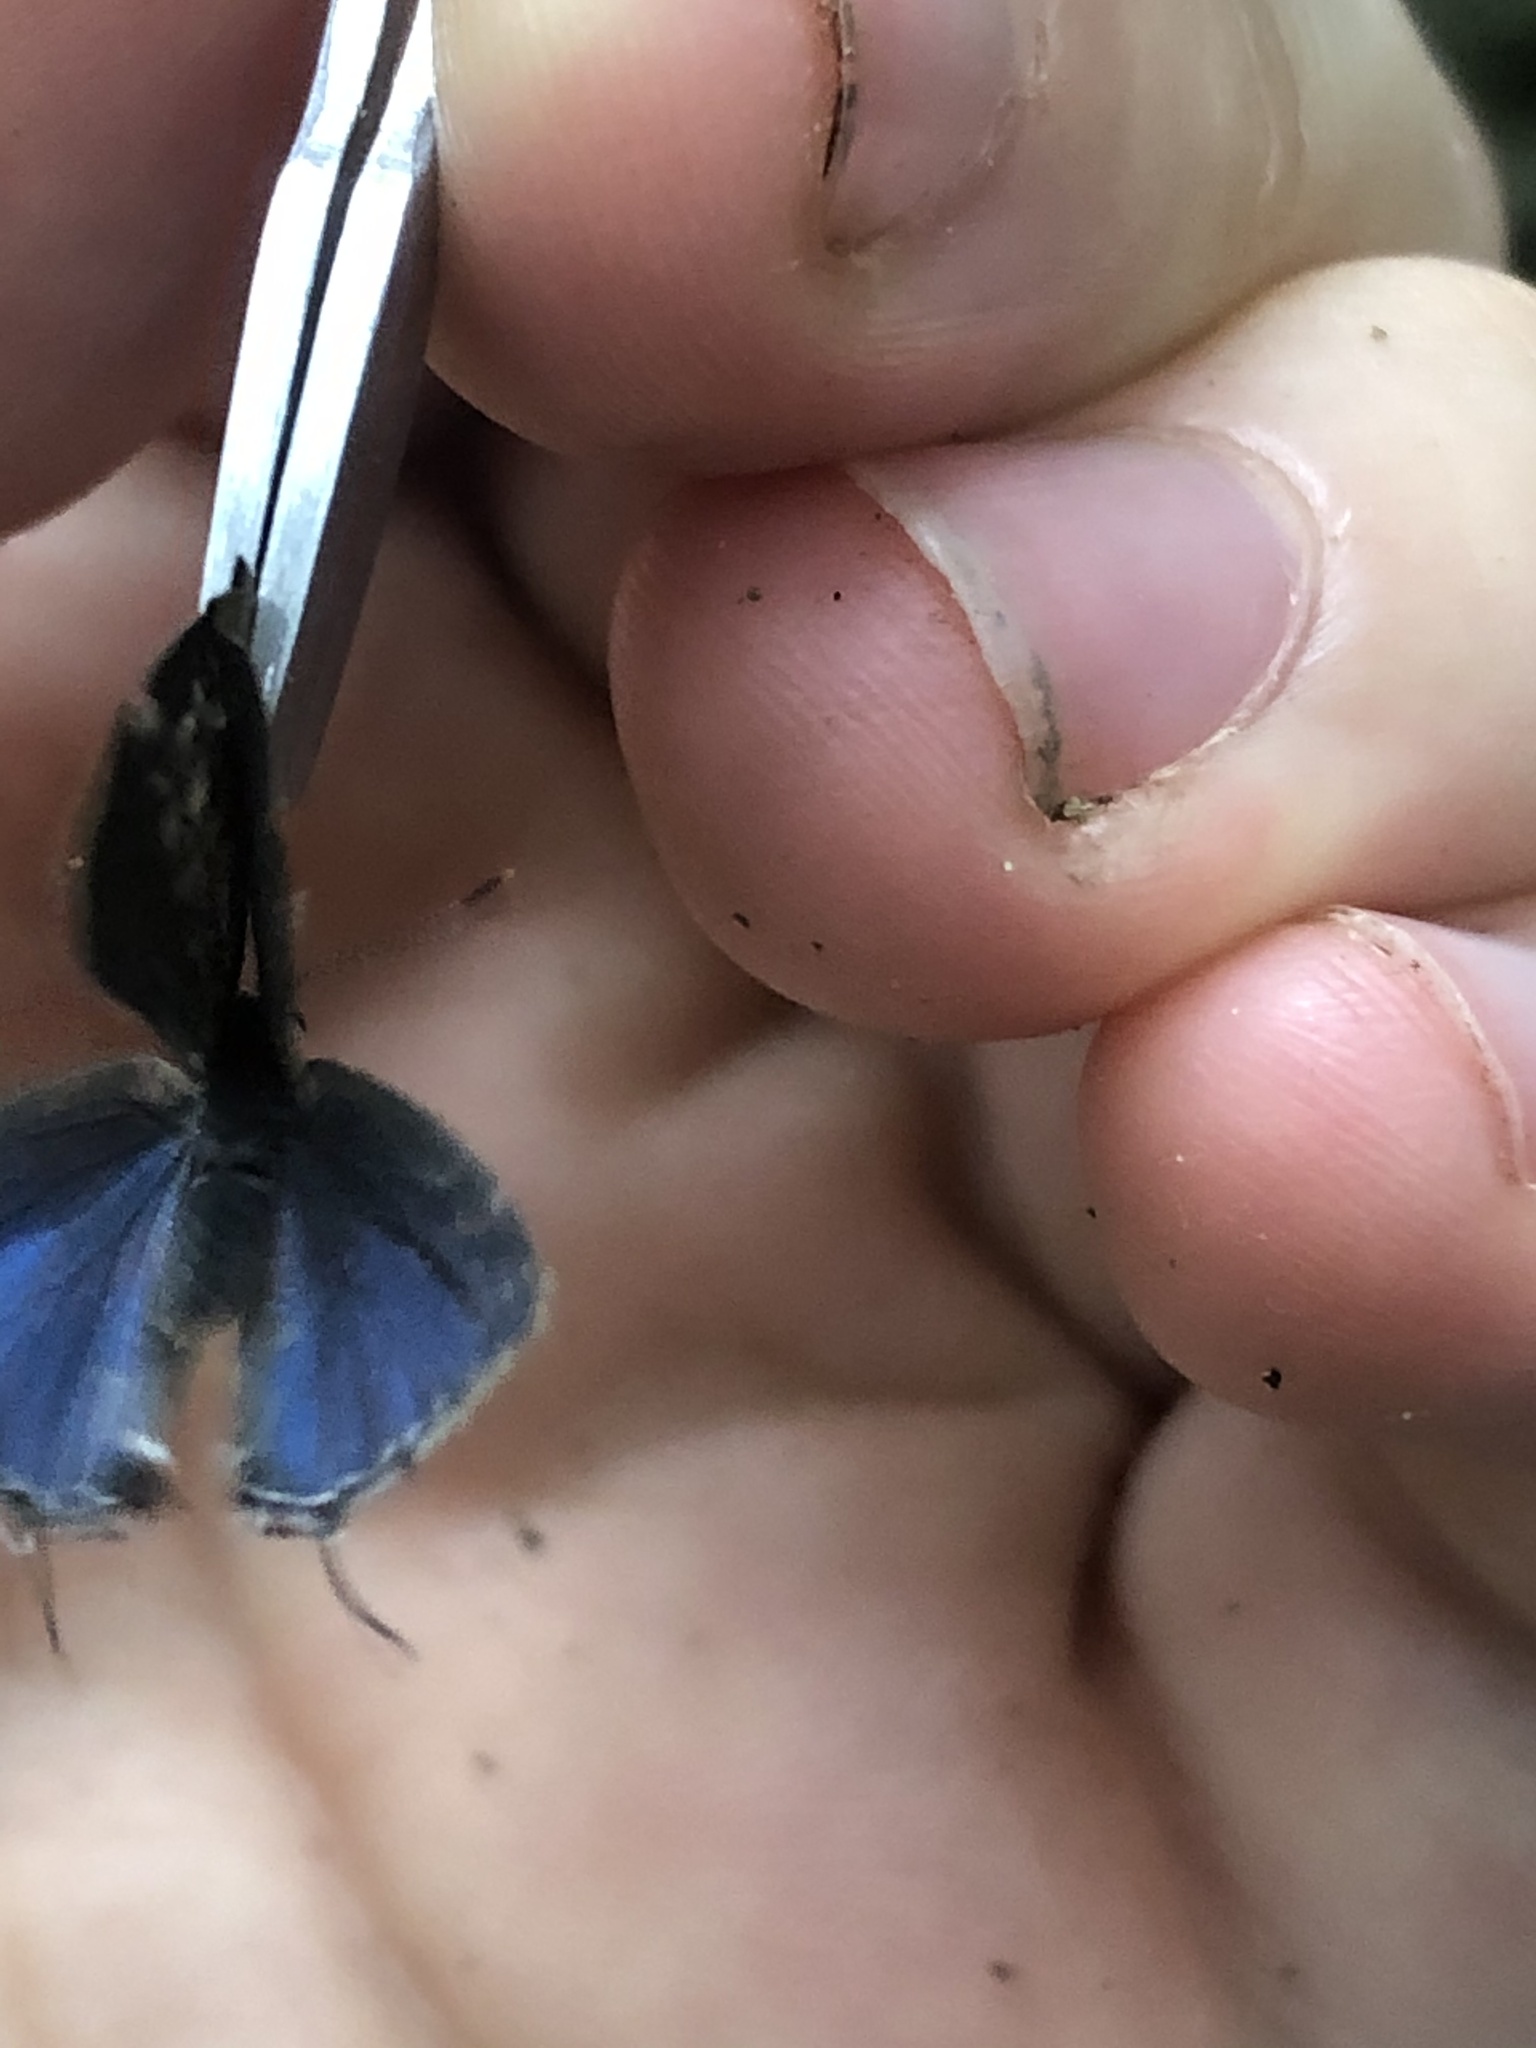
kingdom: Animalia
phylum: Arthropoda
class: Insecta
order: Lepidoptera
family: Lycaenidae
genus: Thecla
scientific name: Thecla cerata
